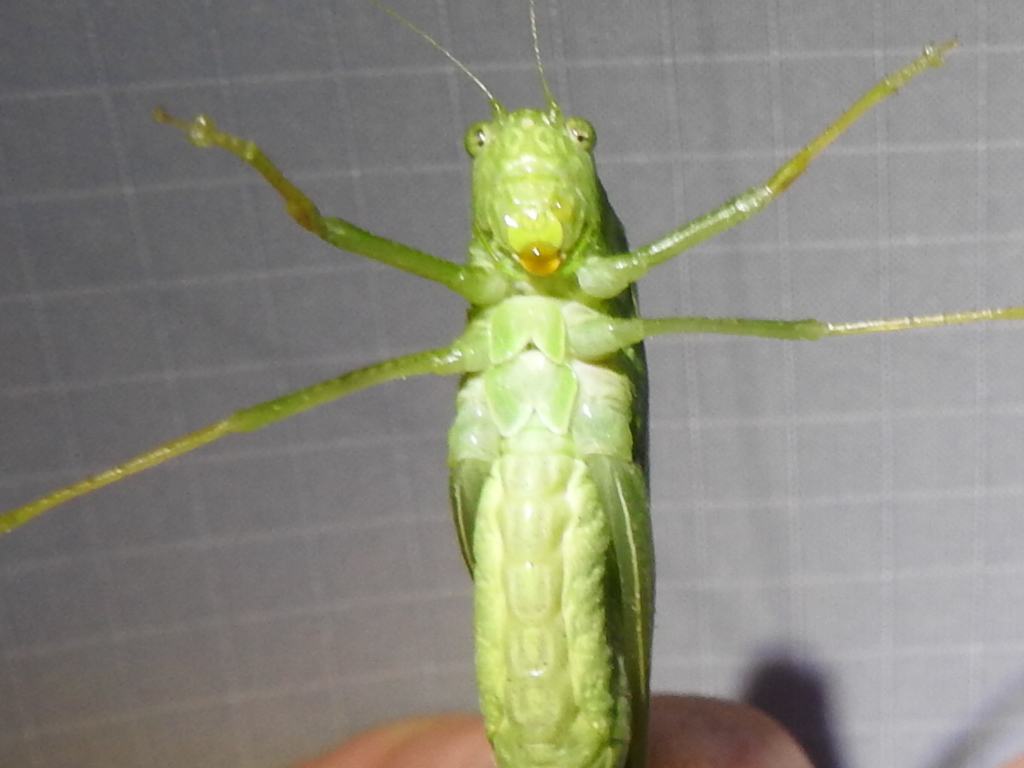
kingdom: Animalia
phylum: Arthropoda
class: Insecta
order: Orthoptera
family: Tettigoniidae
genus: Microcentrum
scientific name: Microcentrum rhombifolium
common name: Broad-winged katydid
